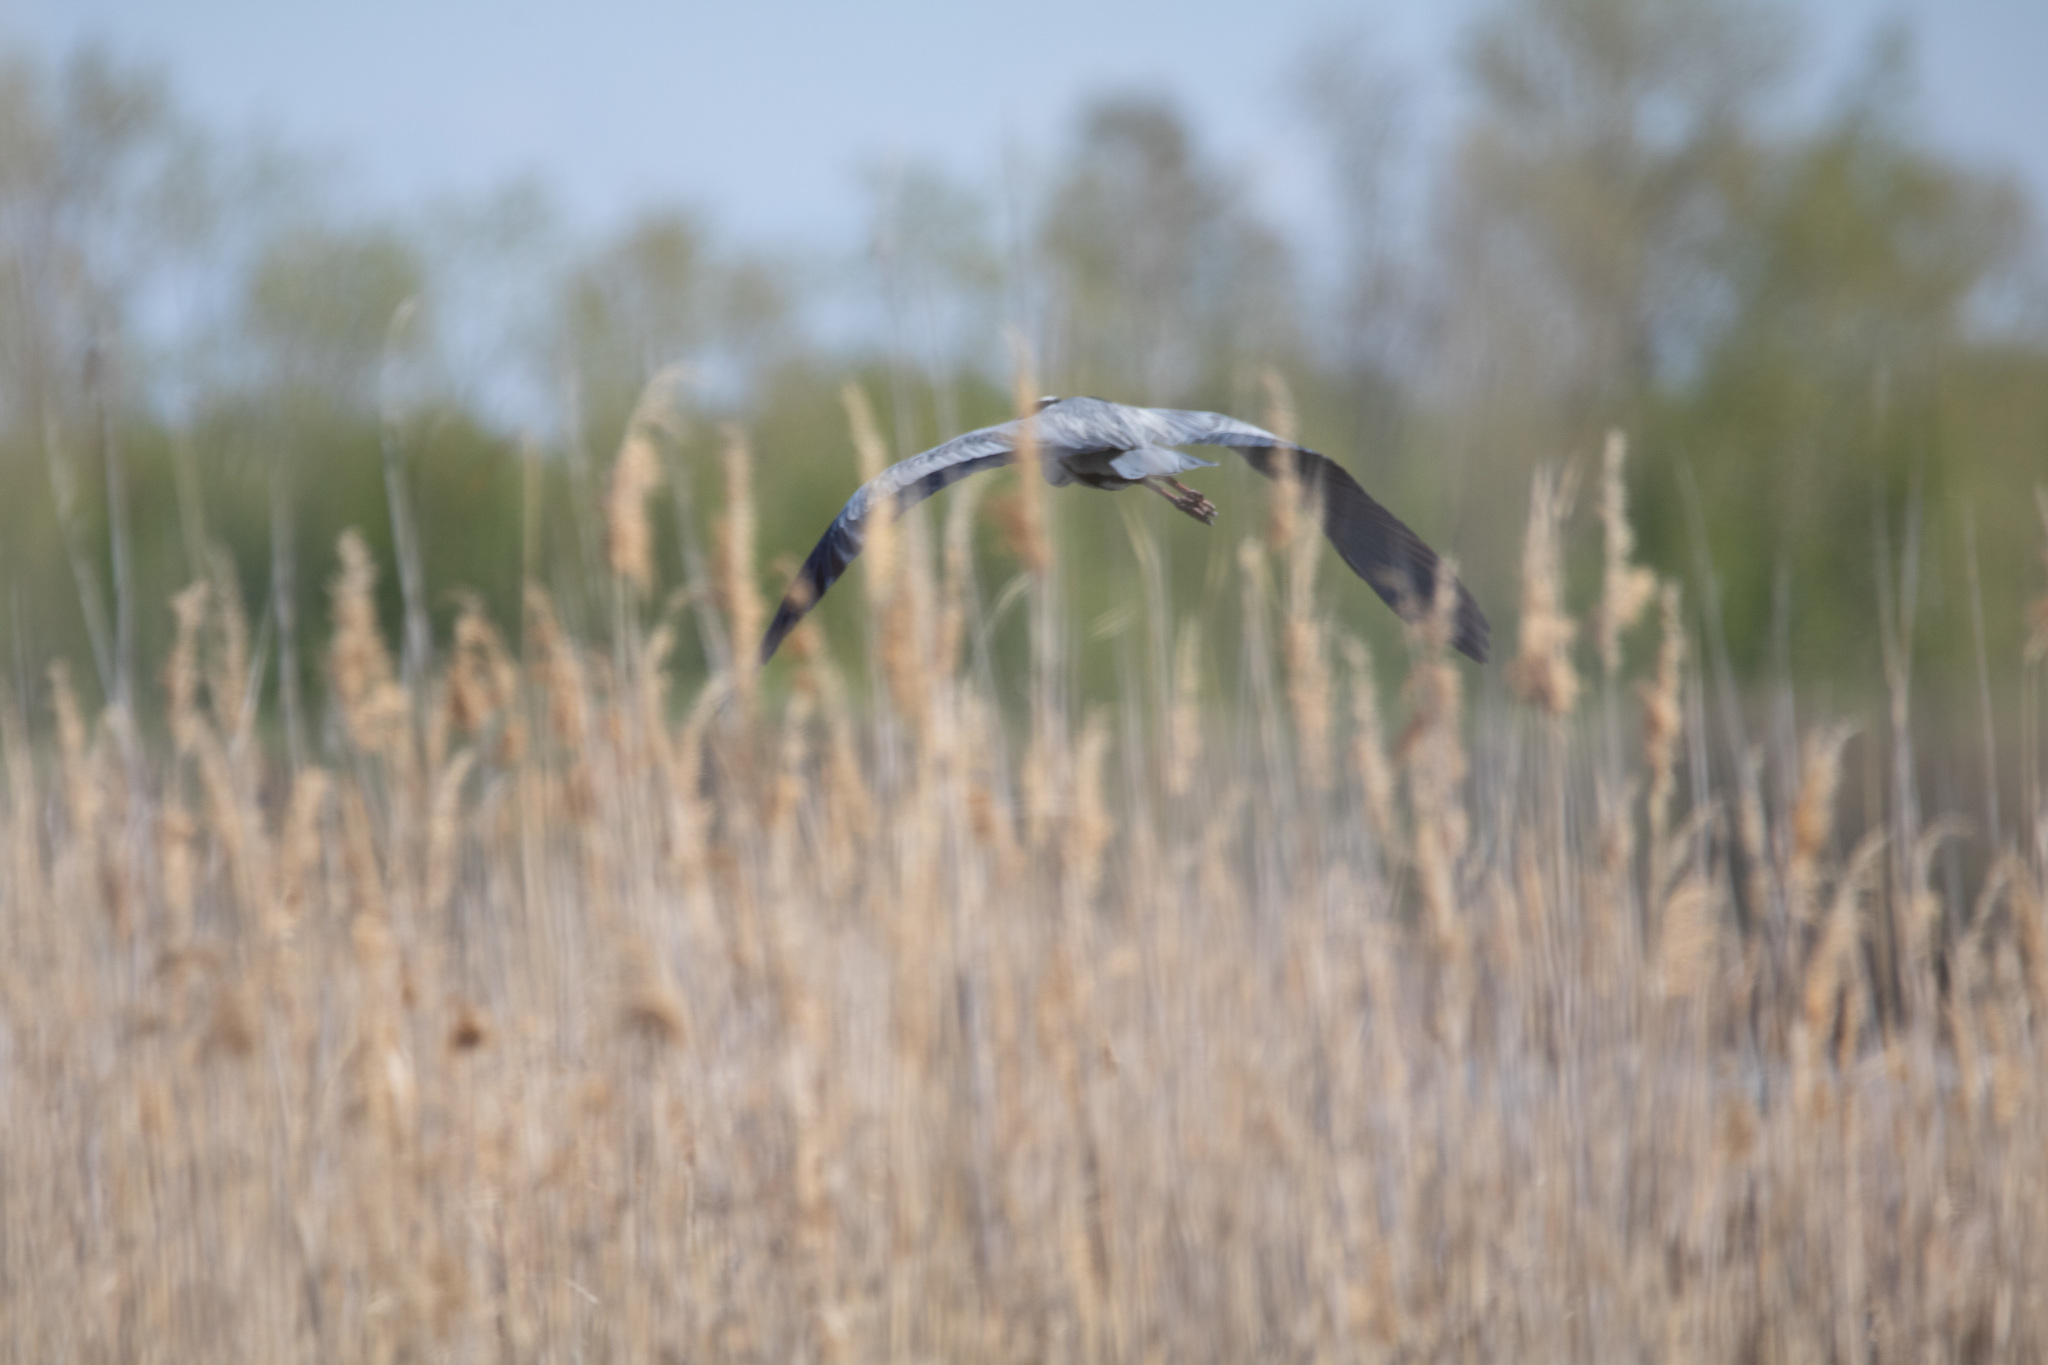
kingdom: Animalia
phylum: Chordata
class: Aves
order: Pelecaniformes
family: Ardeidae
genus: Ardea
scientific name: Ardea cinerea
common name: Grey heron
